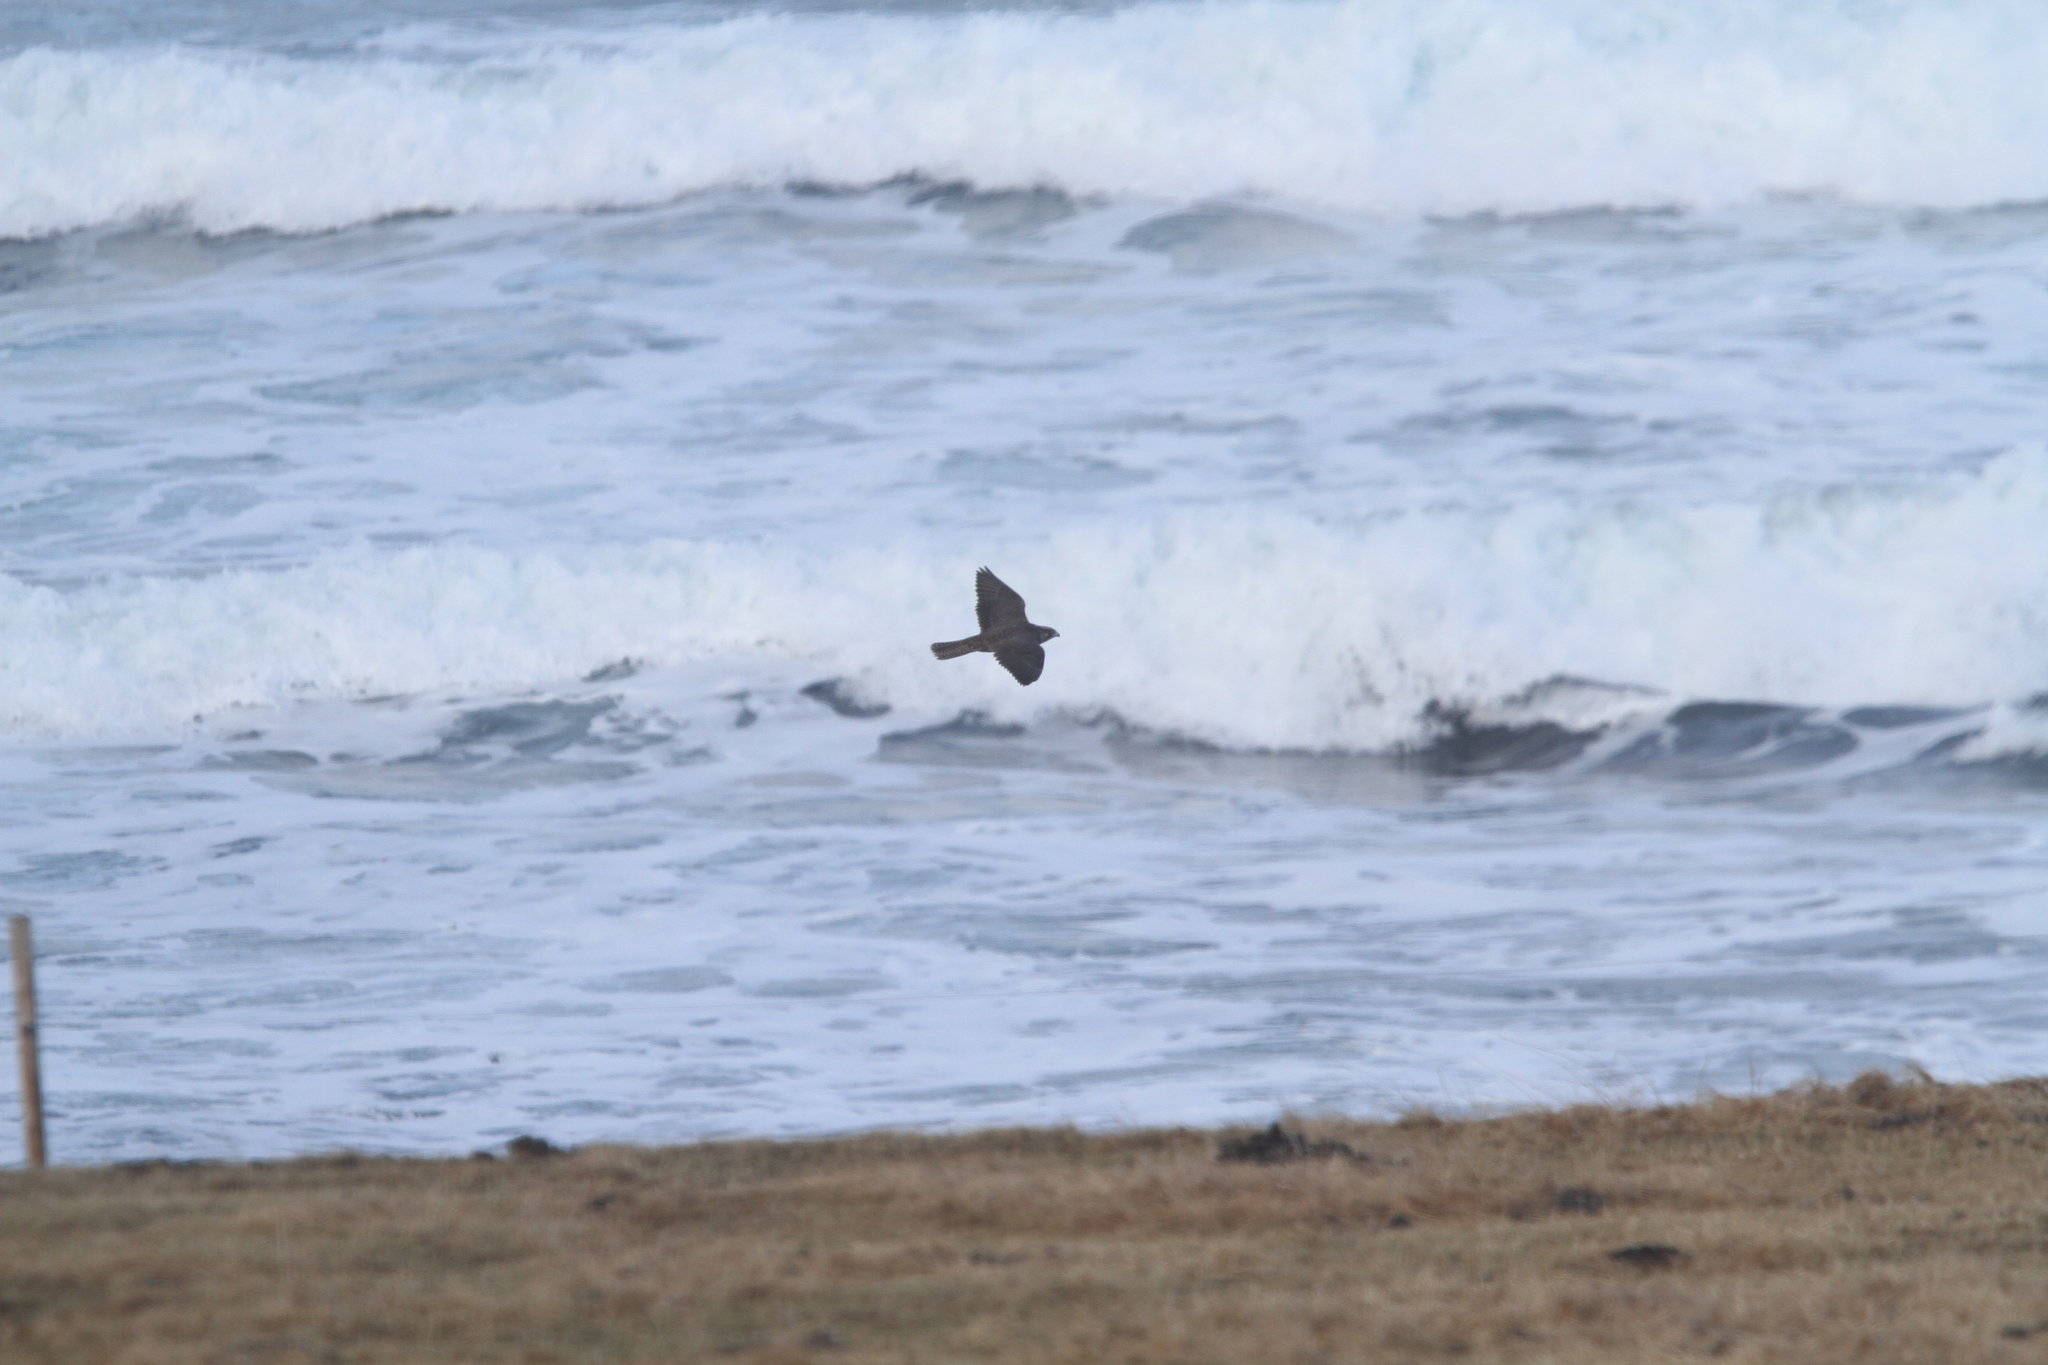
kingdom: Animalia
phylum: Chordata
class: Aves
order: Falconiformes
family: Falconidae
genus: Falco
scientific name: Falco rusticolus
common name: Gyrfalcon
